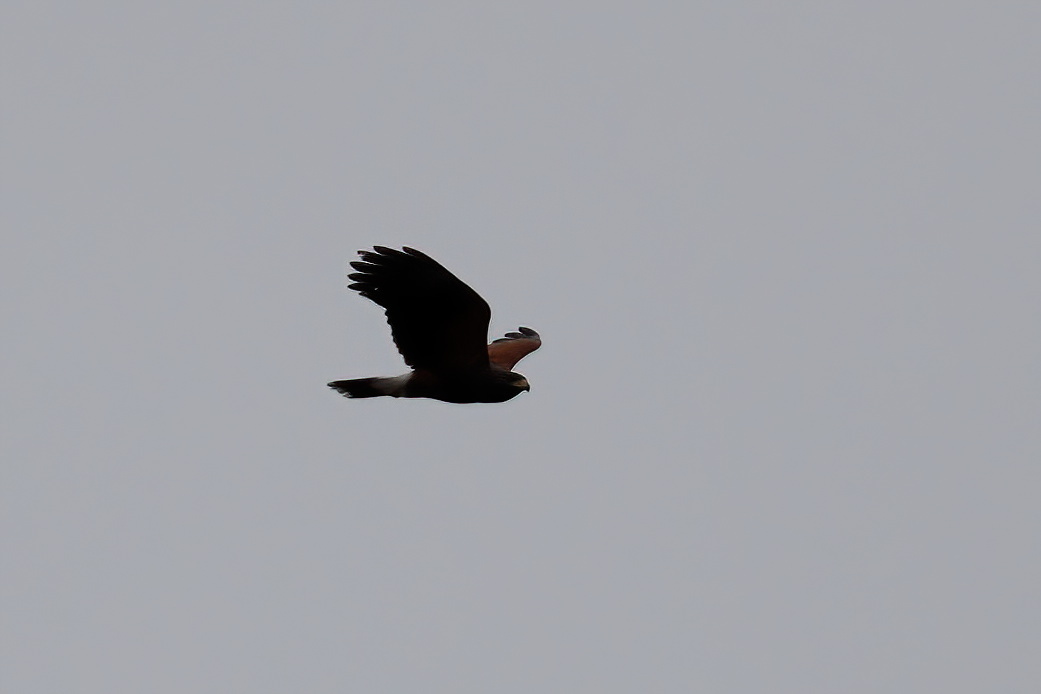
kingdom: Animalia
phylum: Chordata
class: Aves
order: Accipitriformes
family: Accipitridae
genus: Parabuteo
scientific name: Parabuteo unicinctus
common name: Harris's hawk
